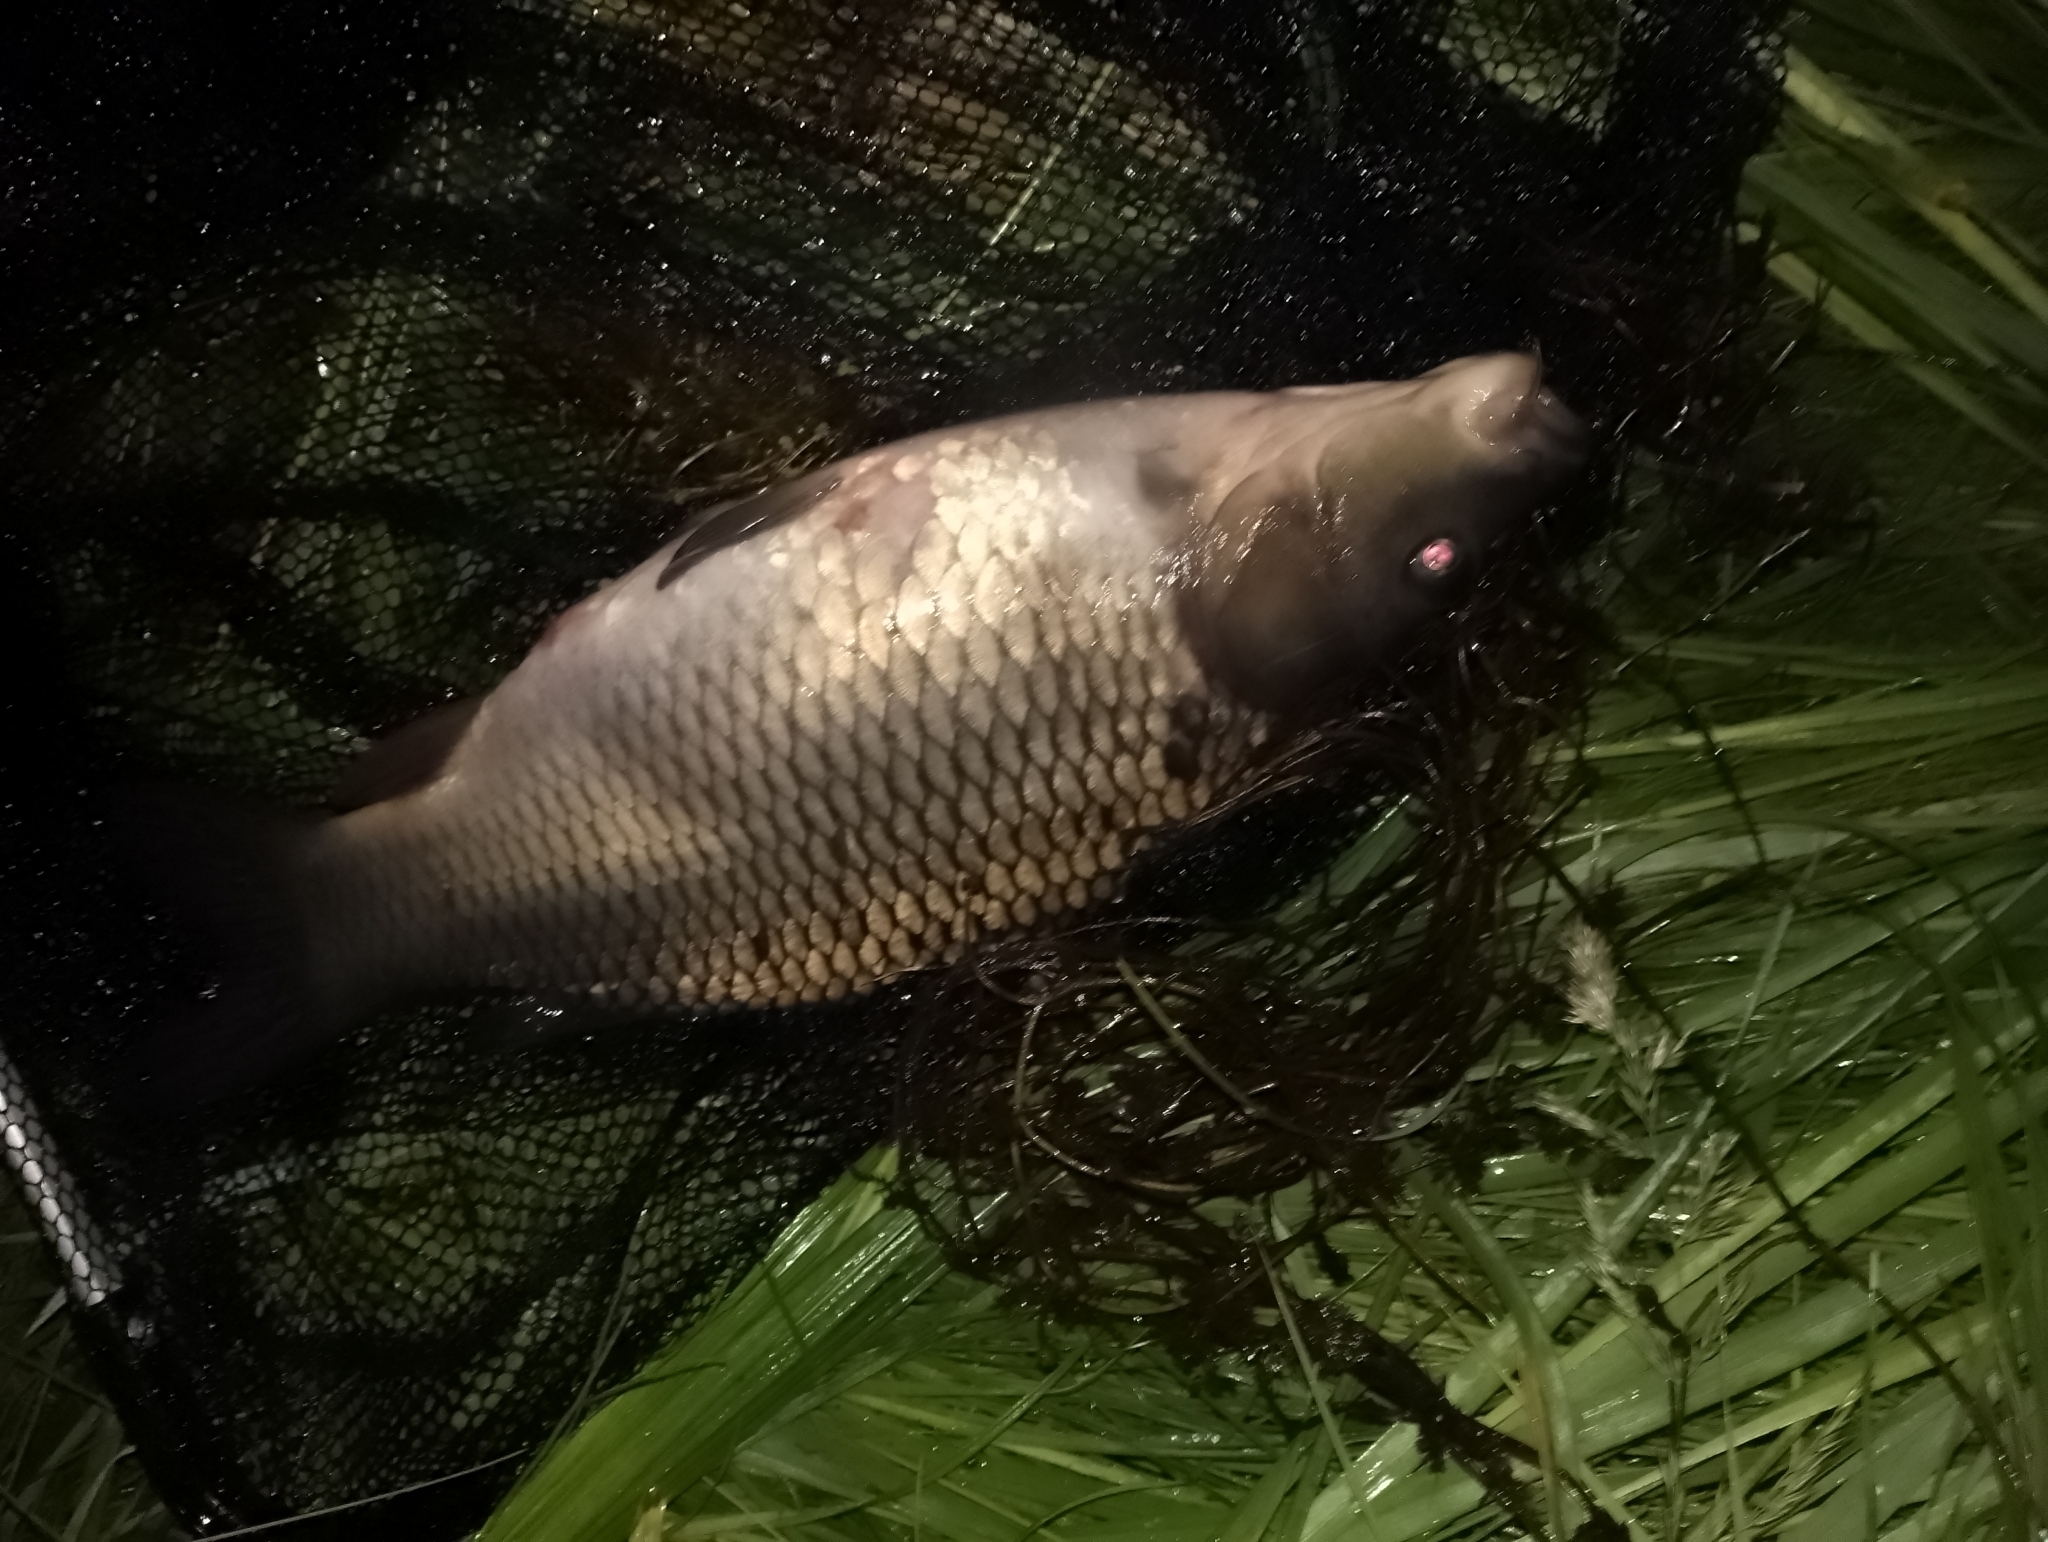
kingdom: Animalia
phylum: Chordata
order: Cypriniformes
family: Cyprinidae
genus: Cyprinus
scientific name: Cyprinus carpio
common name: Common carp
